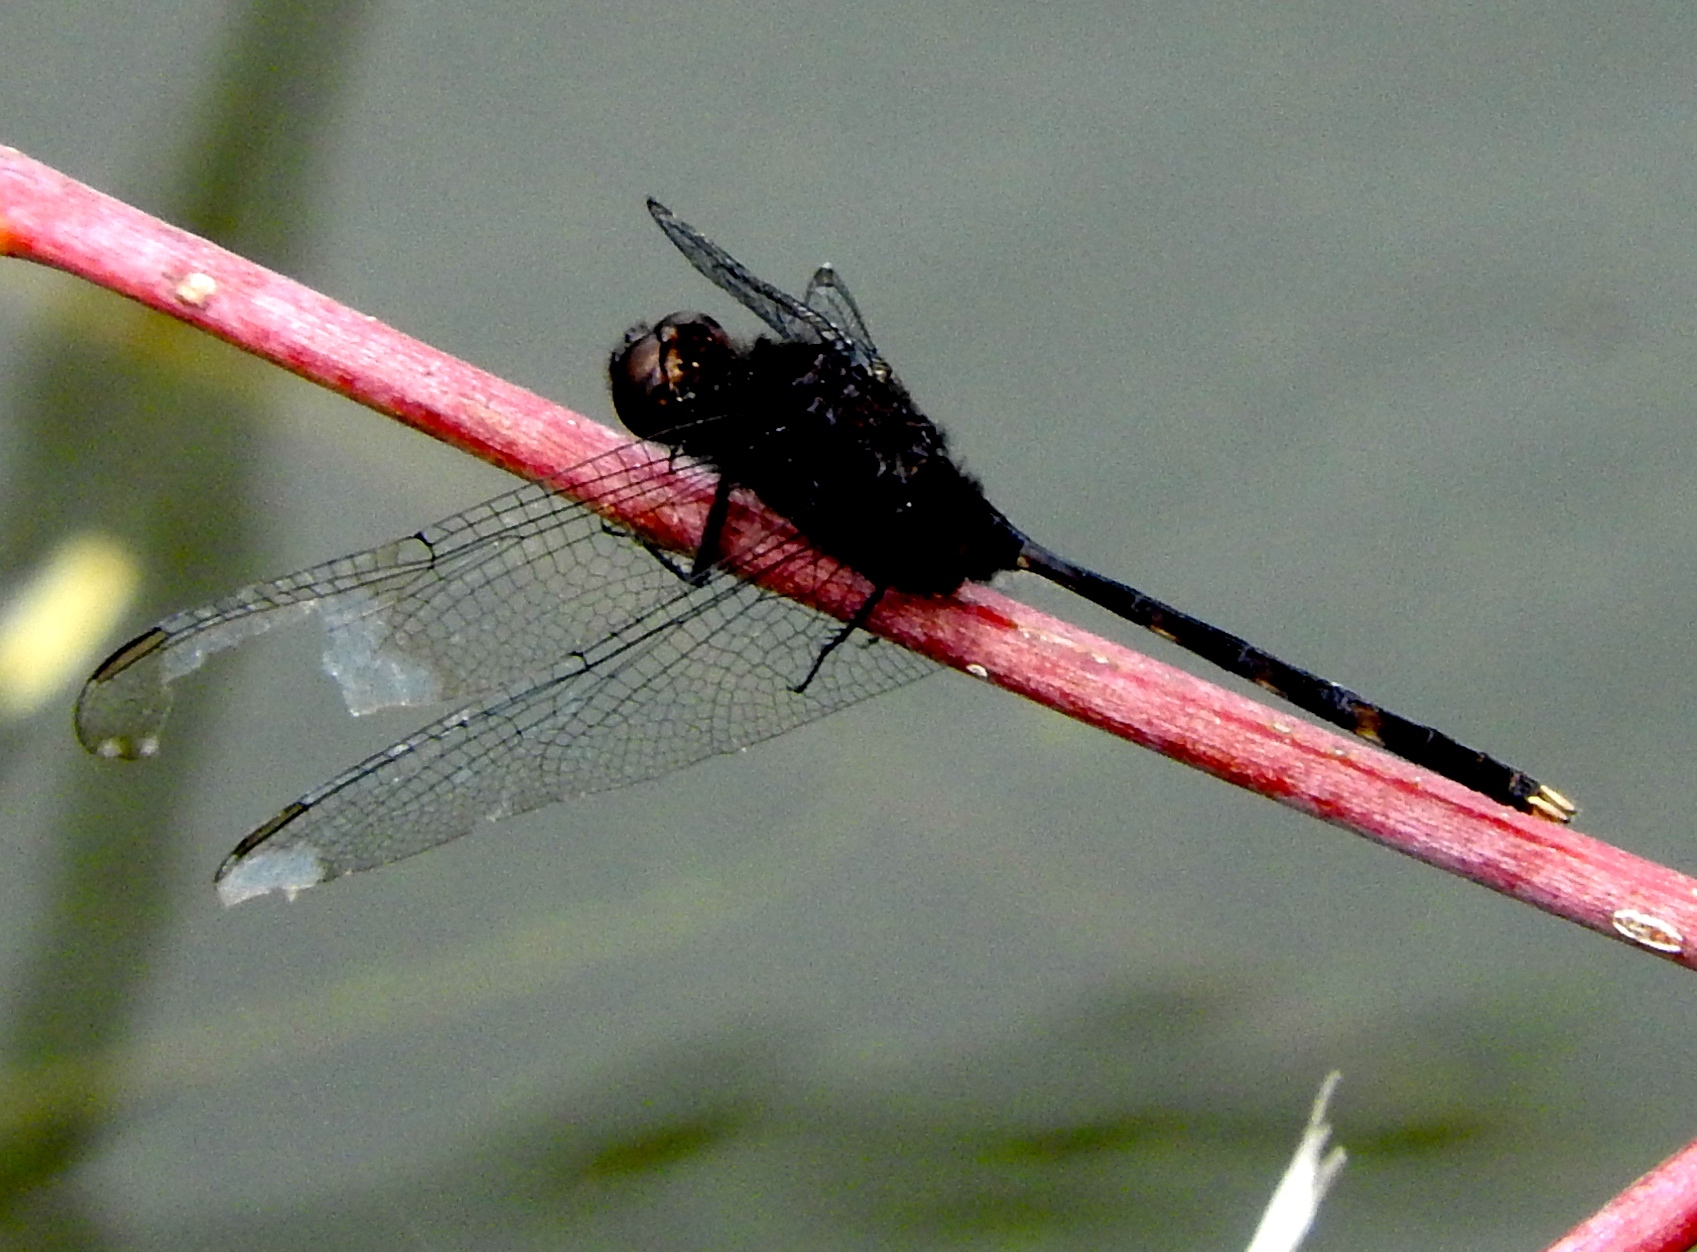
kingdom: Animalia
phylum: Arthropoda
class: Insecta
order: Odonata
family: Libellulidae
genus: Erythemis
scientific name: Erythemis plebeja
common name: Pin-tailed pondhawk
